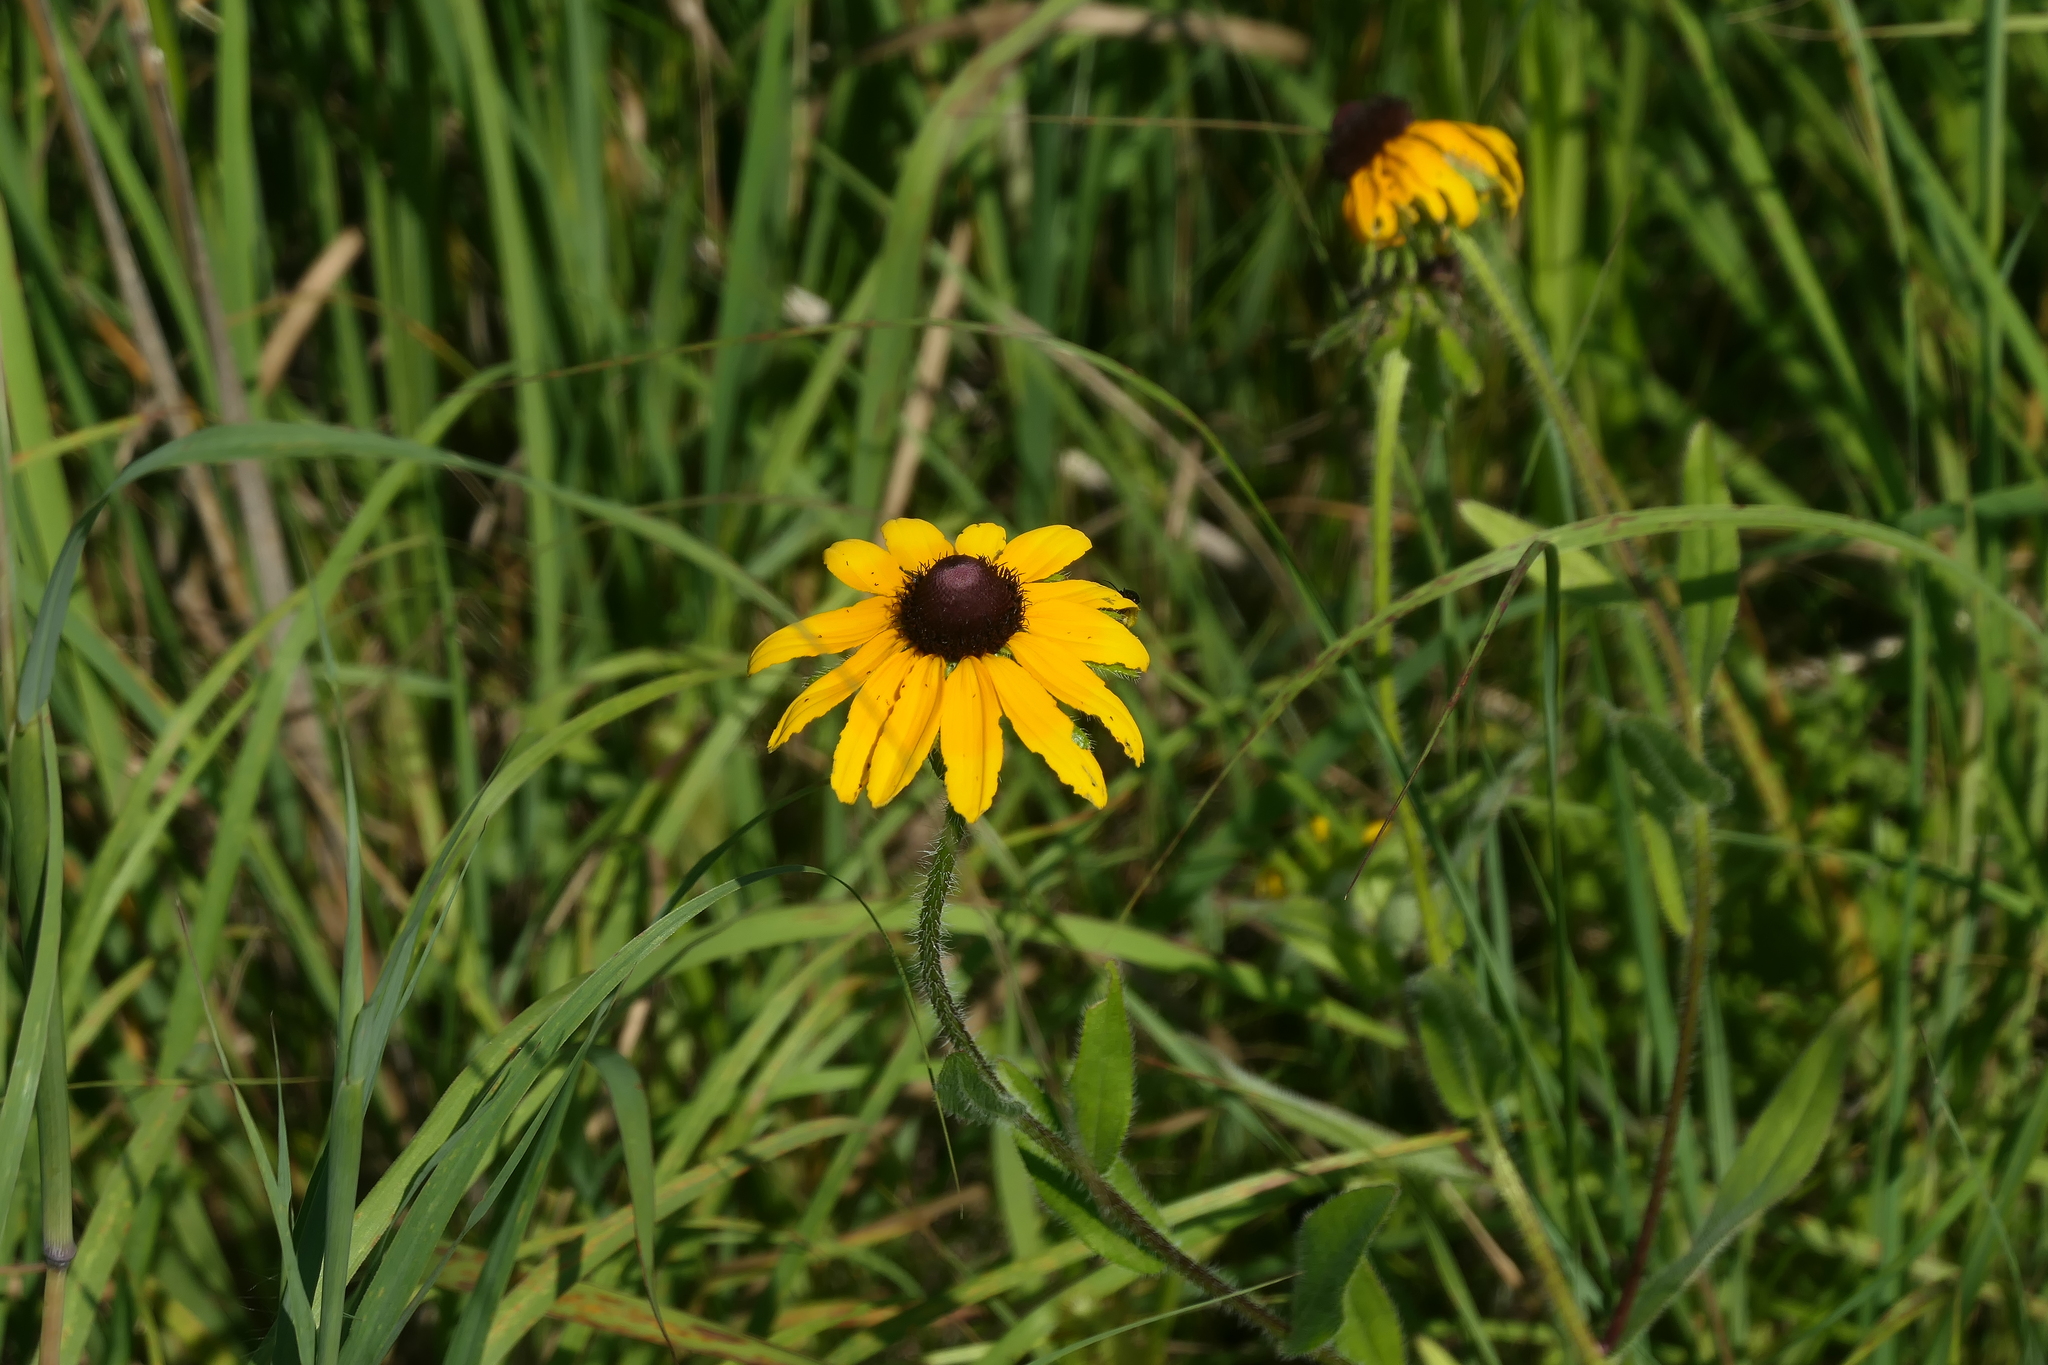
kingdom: Plantae
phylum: Tracheophyta
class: Magnoliopsida
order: Asterales
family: Asteraceae
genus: Rudbeckia
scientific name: Rudbeckia hirta
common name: Black-eyed-susan
